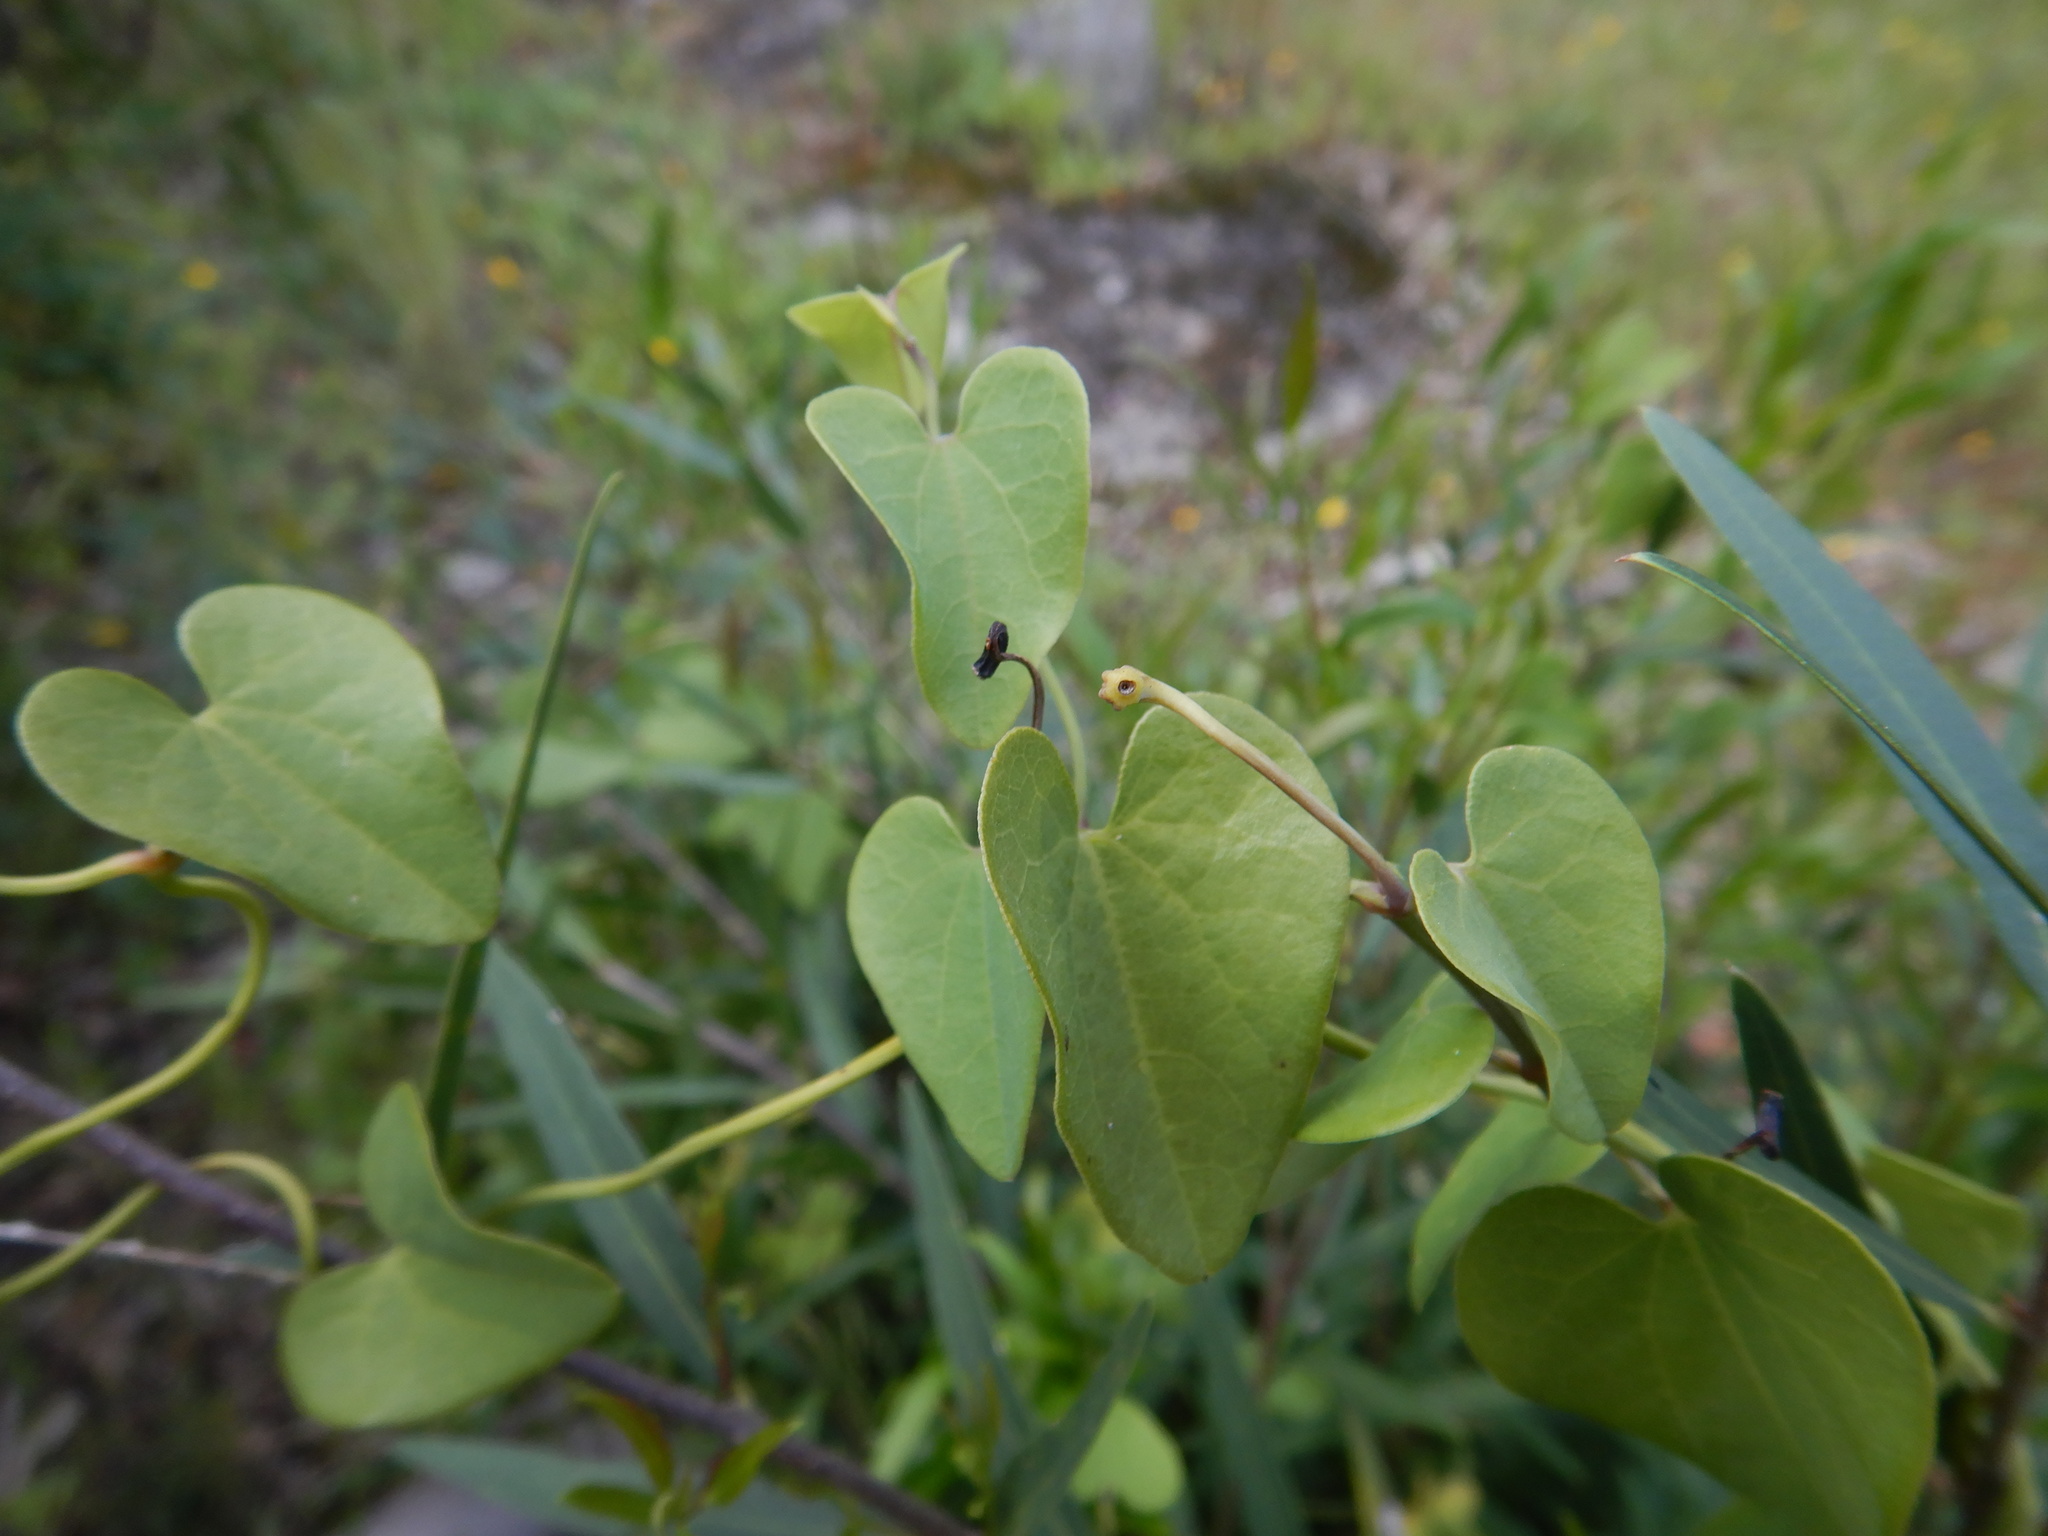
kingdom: Plantae
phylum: Tracheophyta
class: Magnoliopsida
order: Piperales
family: Aristolochiaceae
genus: Aristolochia
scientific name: Aristolochia baetica
